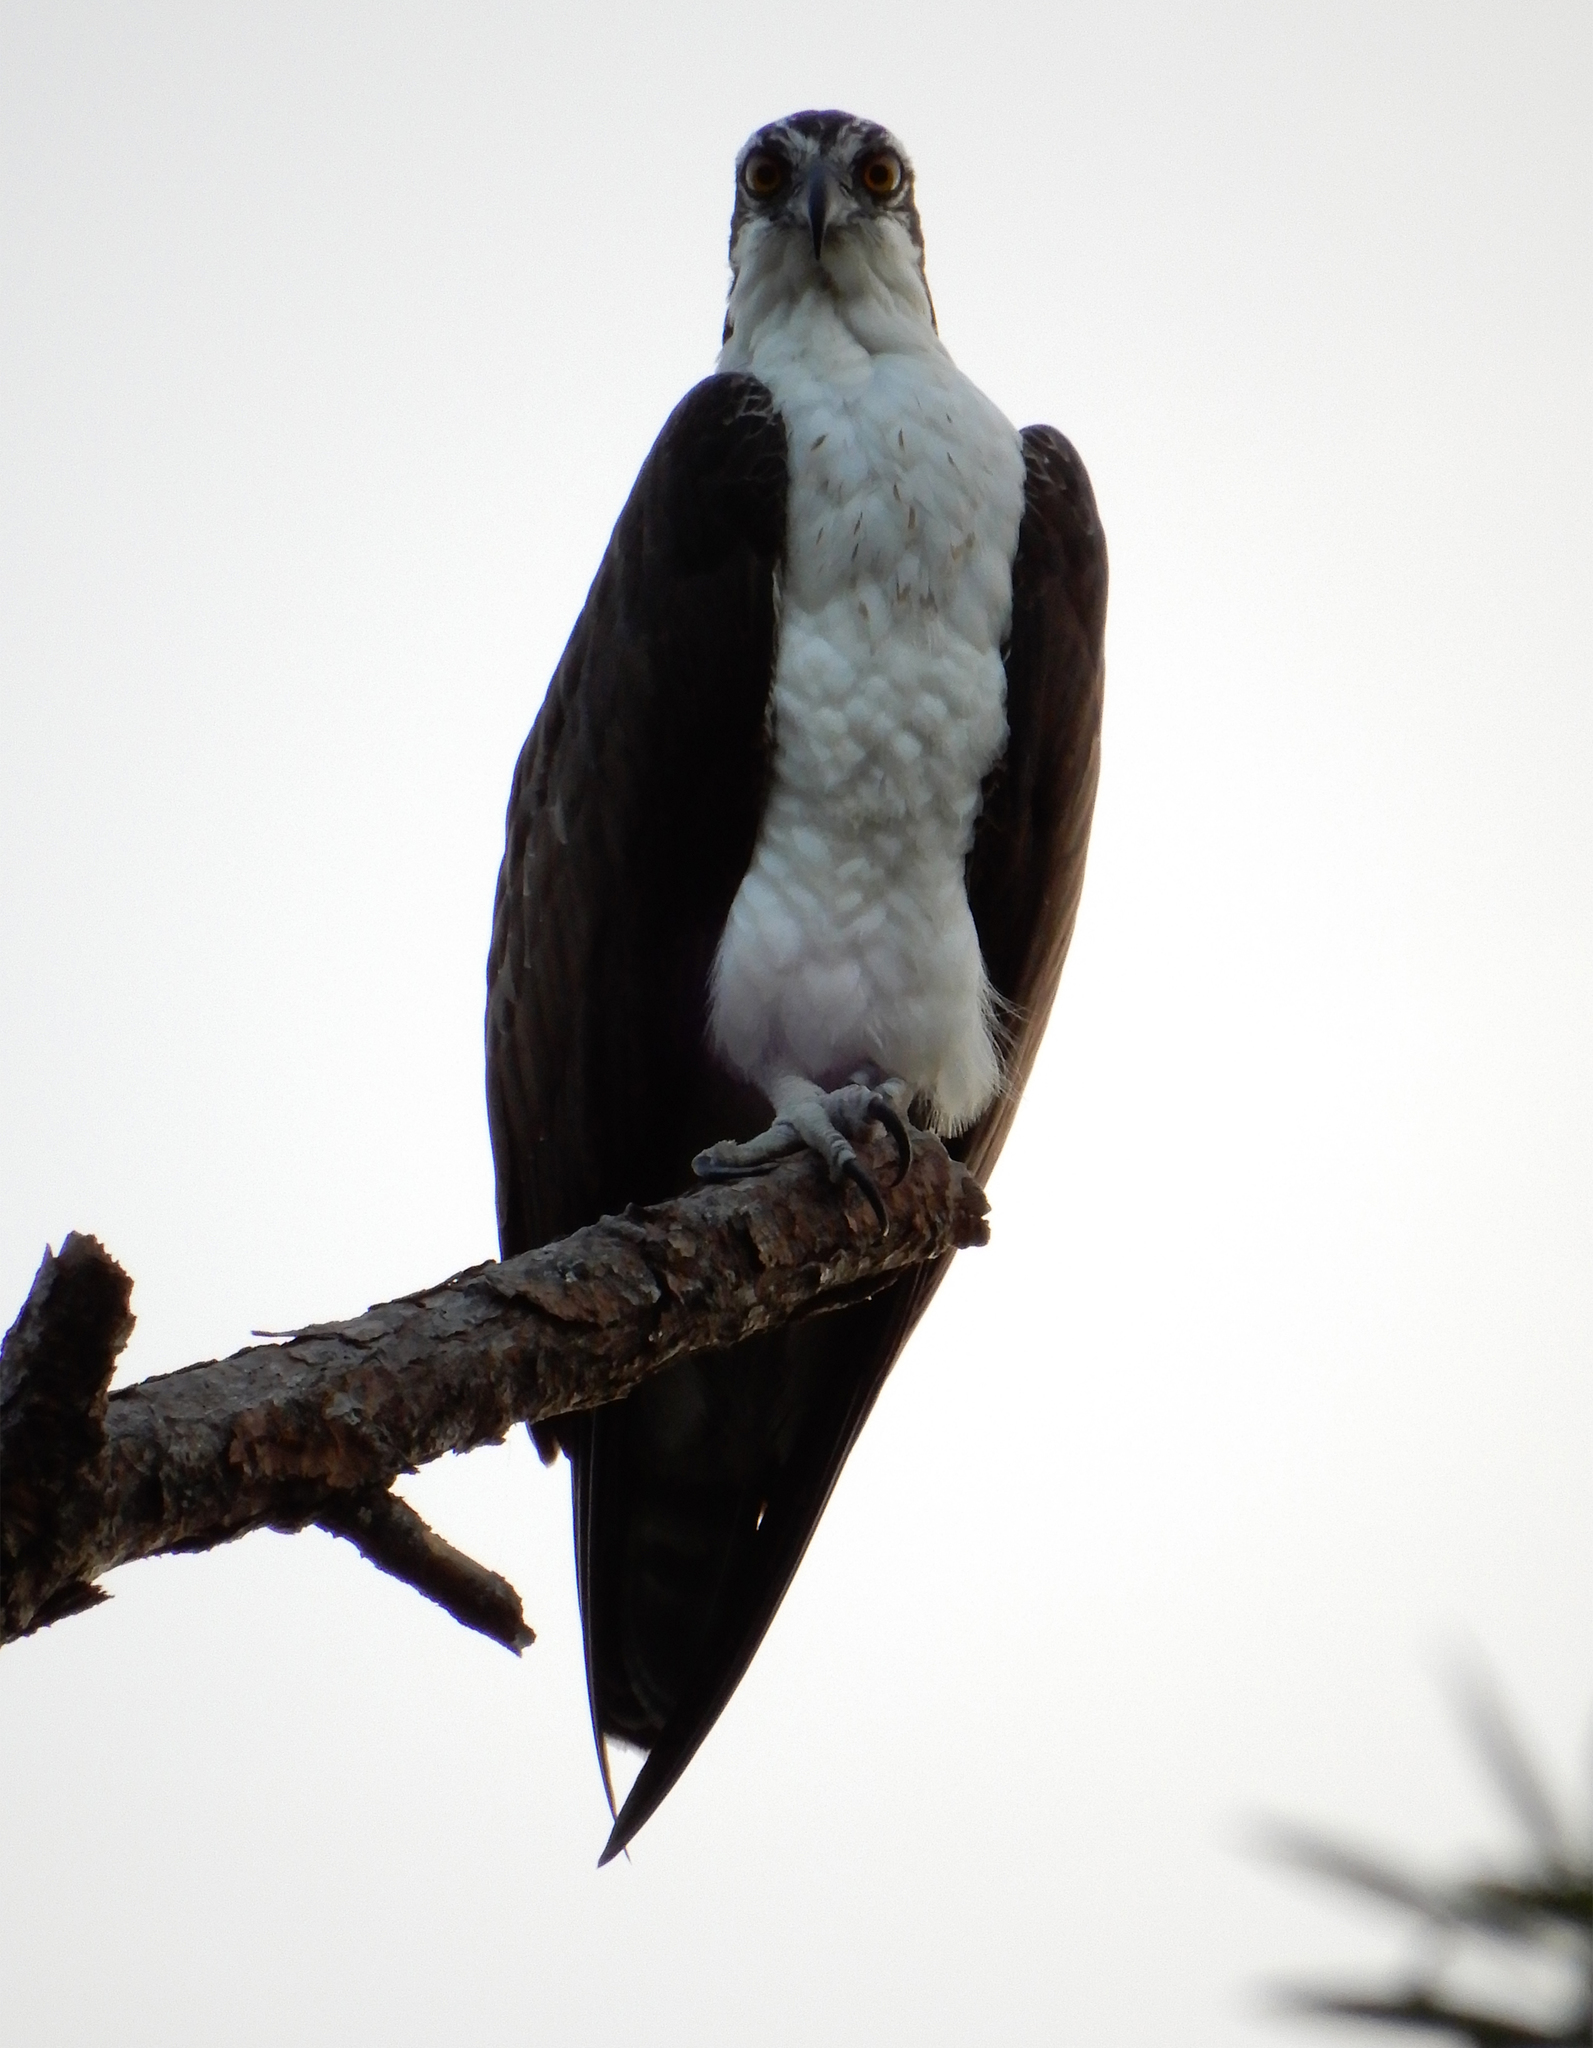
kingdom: Animalia
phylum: Chordata
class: Aves
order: Accipitriformes
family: Pandionidae
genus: Pandion
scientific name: Pandion haliaetus
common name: Osprey
